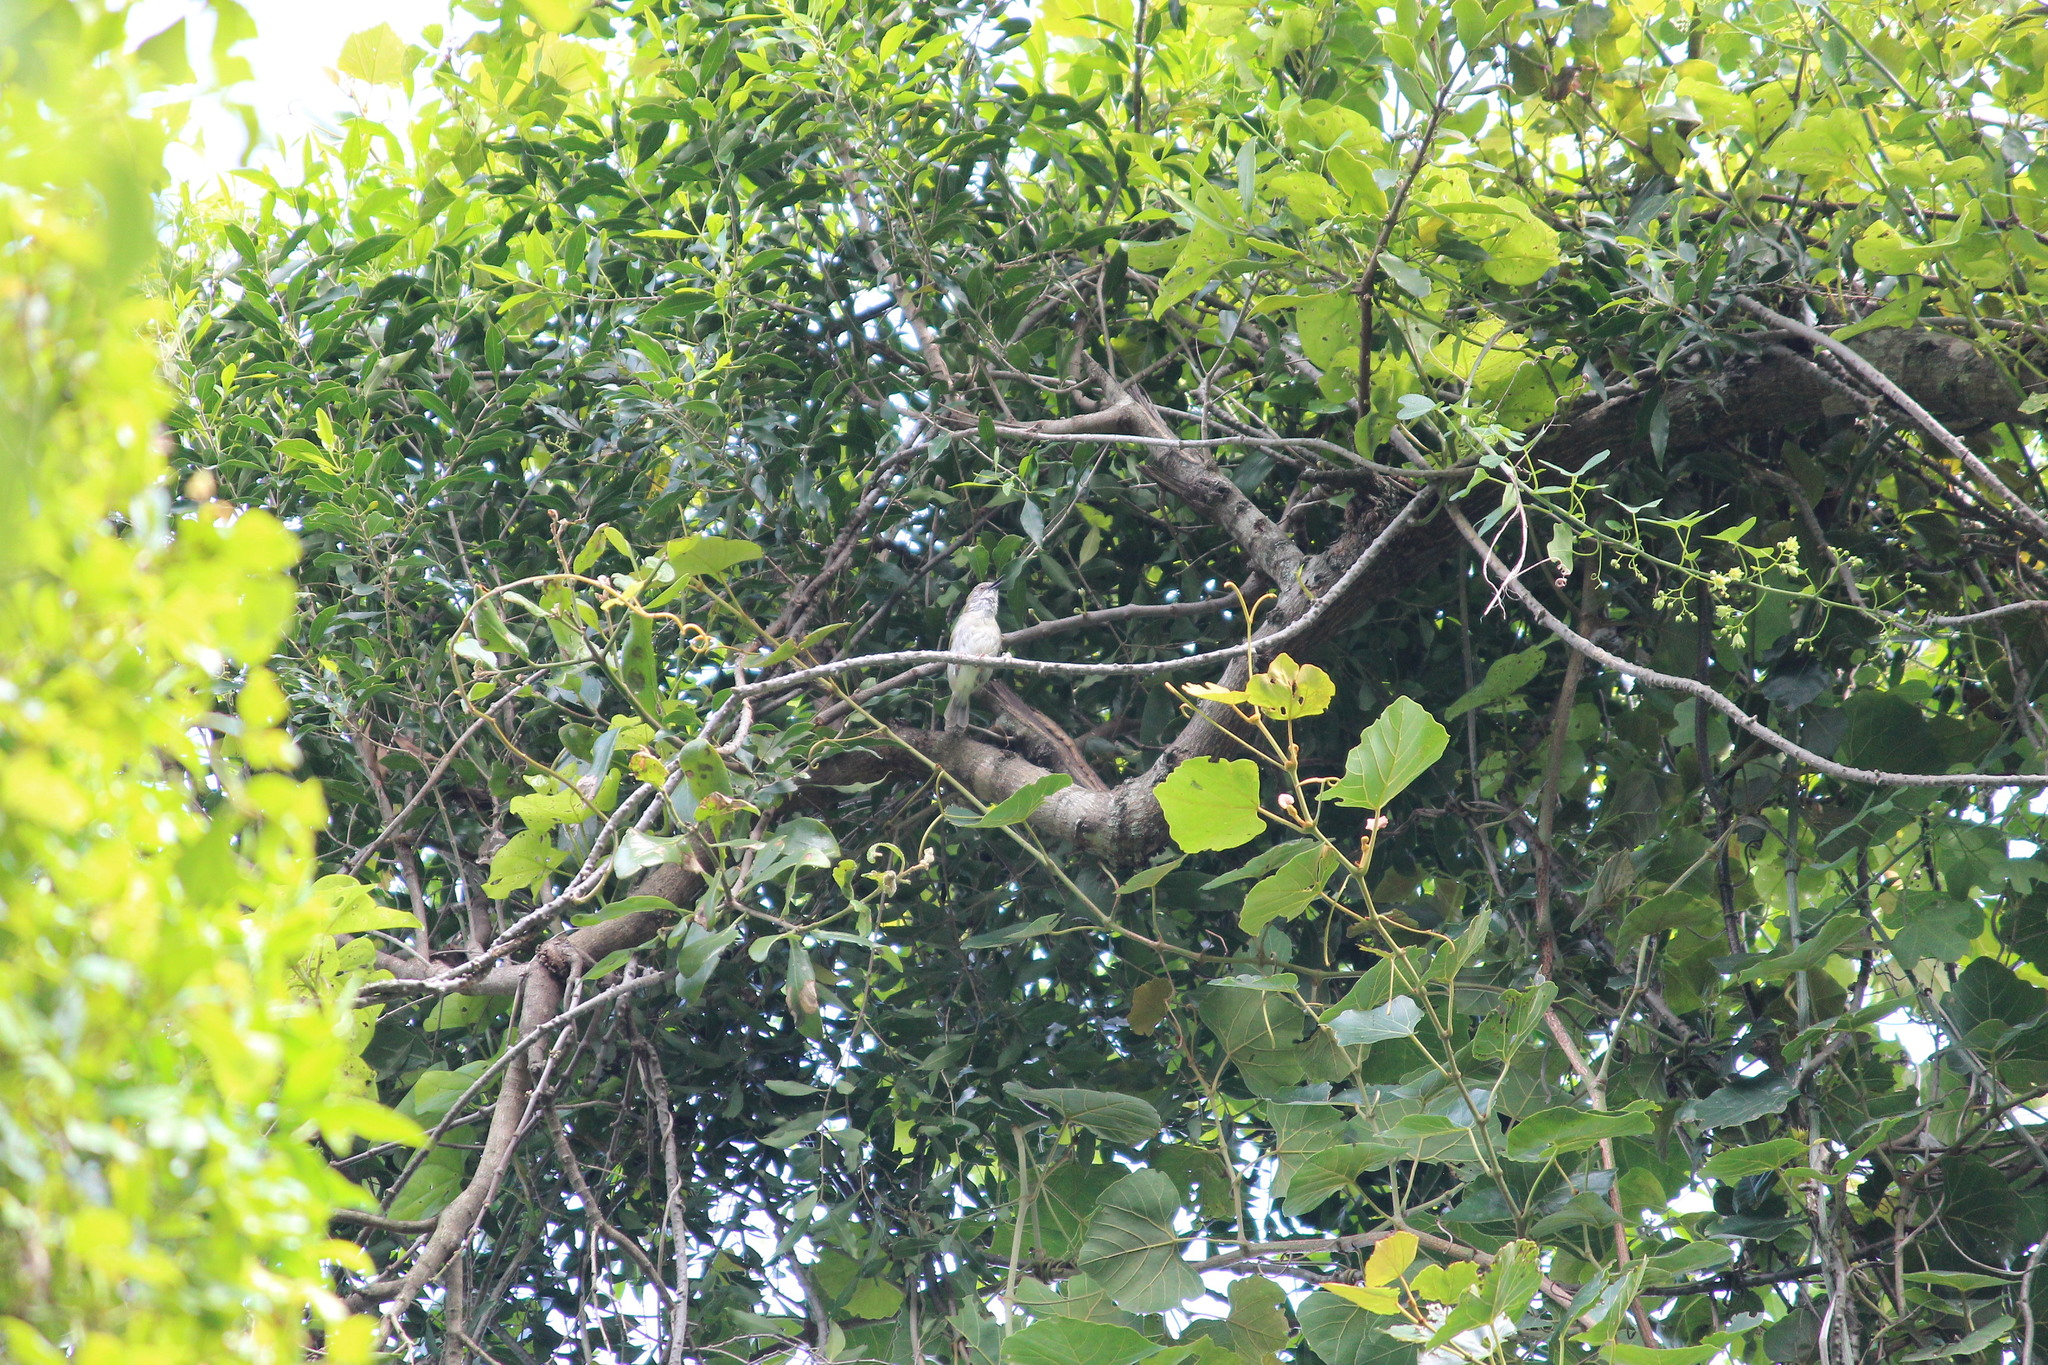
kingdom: Animalia
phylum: Chordata
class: Aves
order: Passeriformes
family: Cisticolidae
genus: Camaroptera
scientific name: Camaroptera brachyura
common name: Green-backed camaroptera
